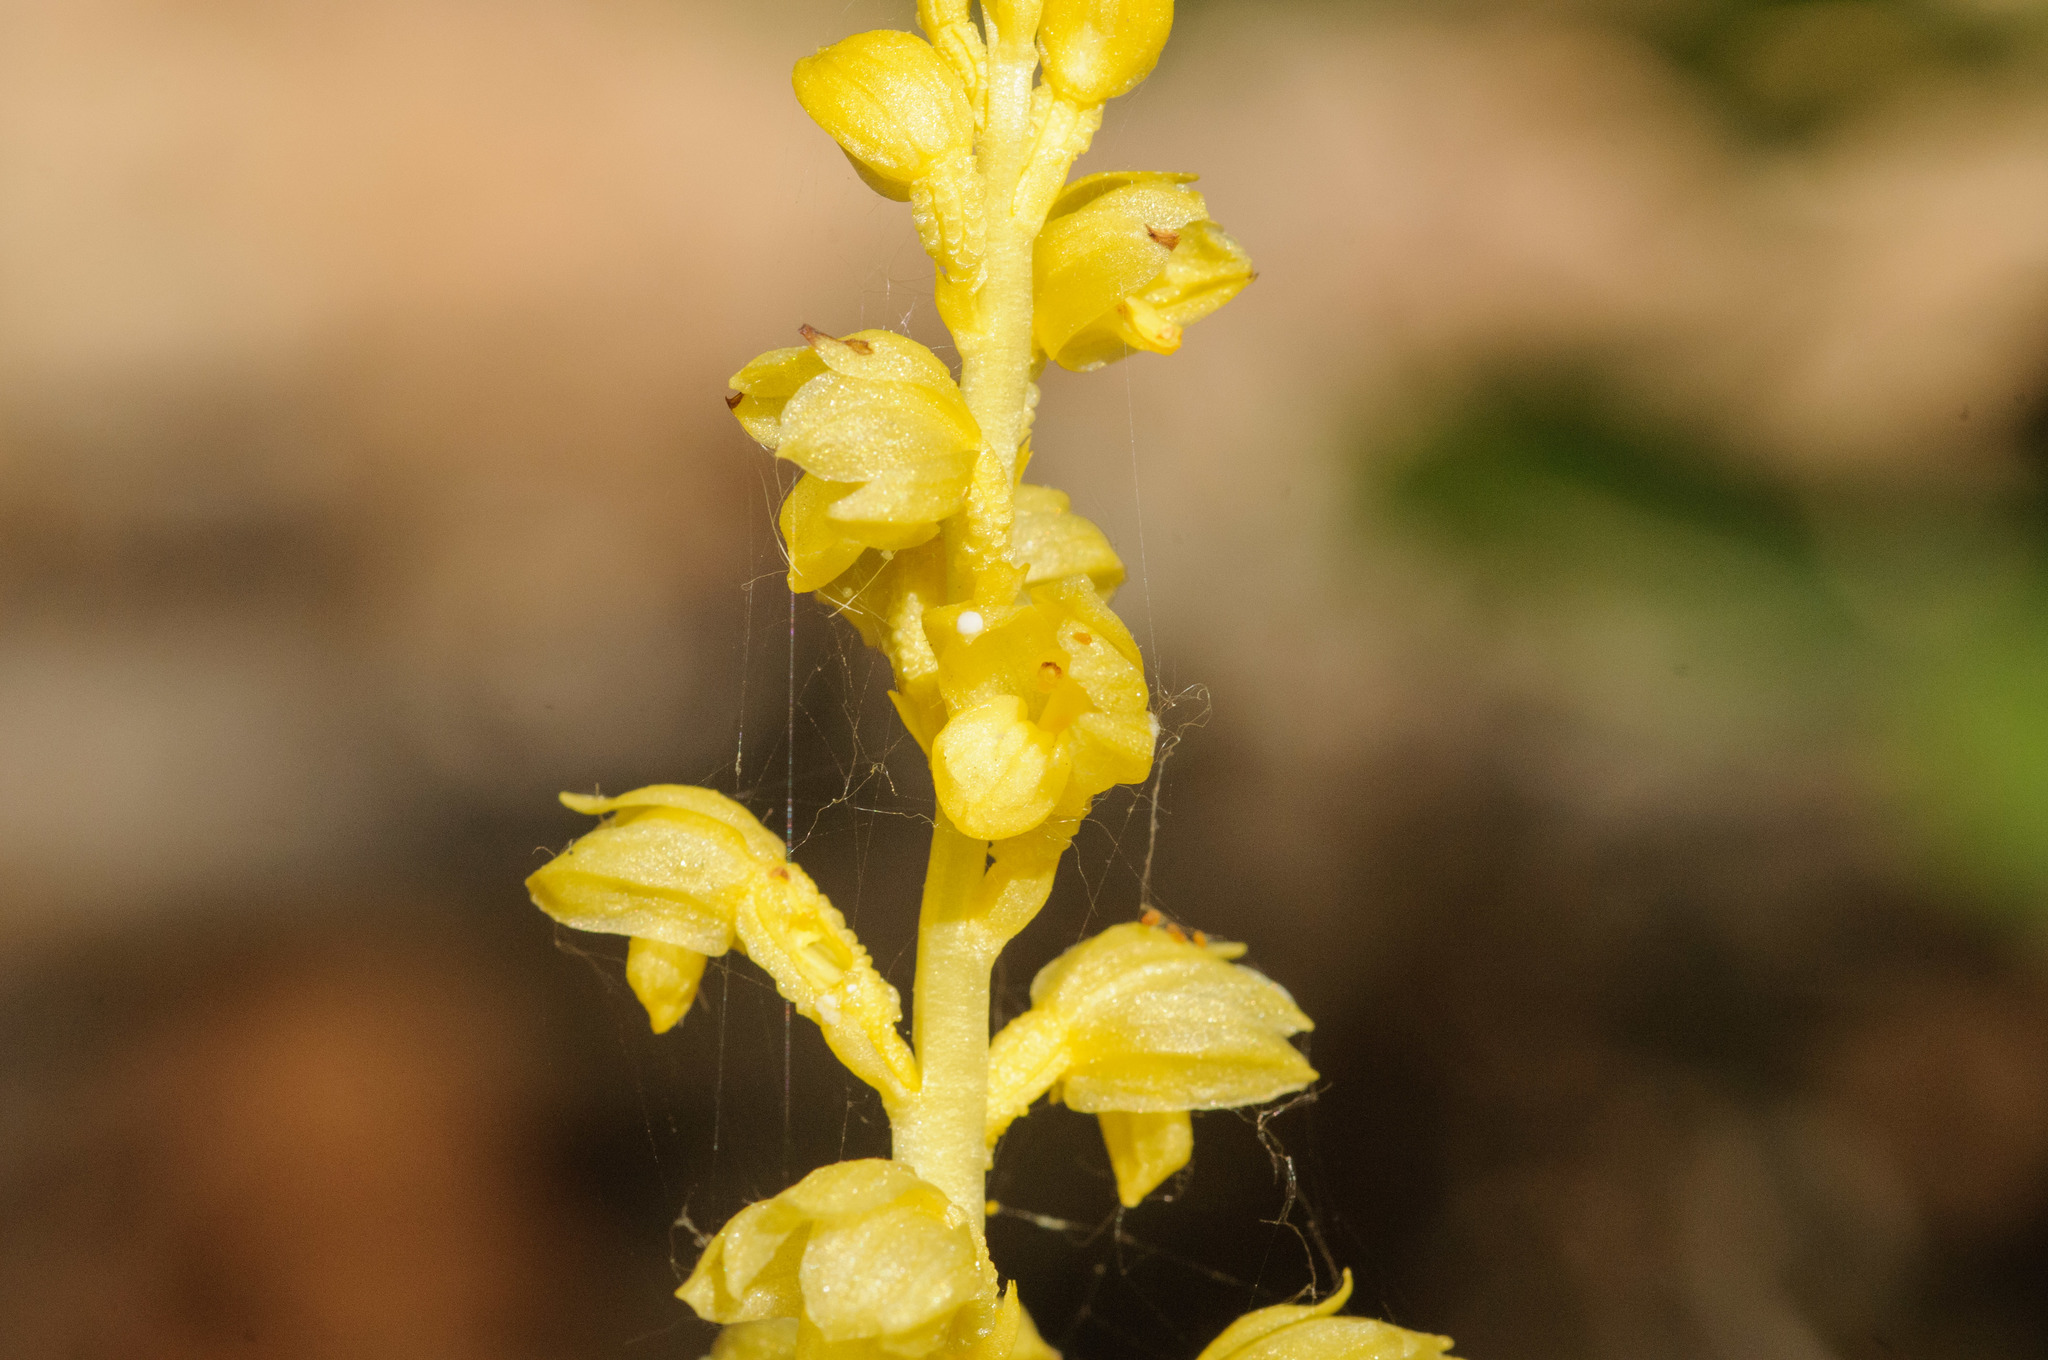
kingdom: Plantae
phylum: Tracheophyta
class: Liliopsida
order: Asparagales
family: Orchidaceae
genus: Corallorhiza
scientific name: Corallorhiza striata
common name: Hooded coralroot
